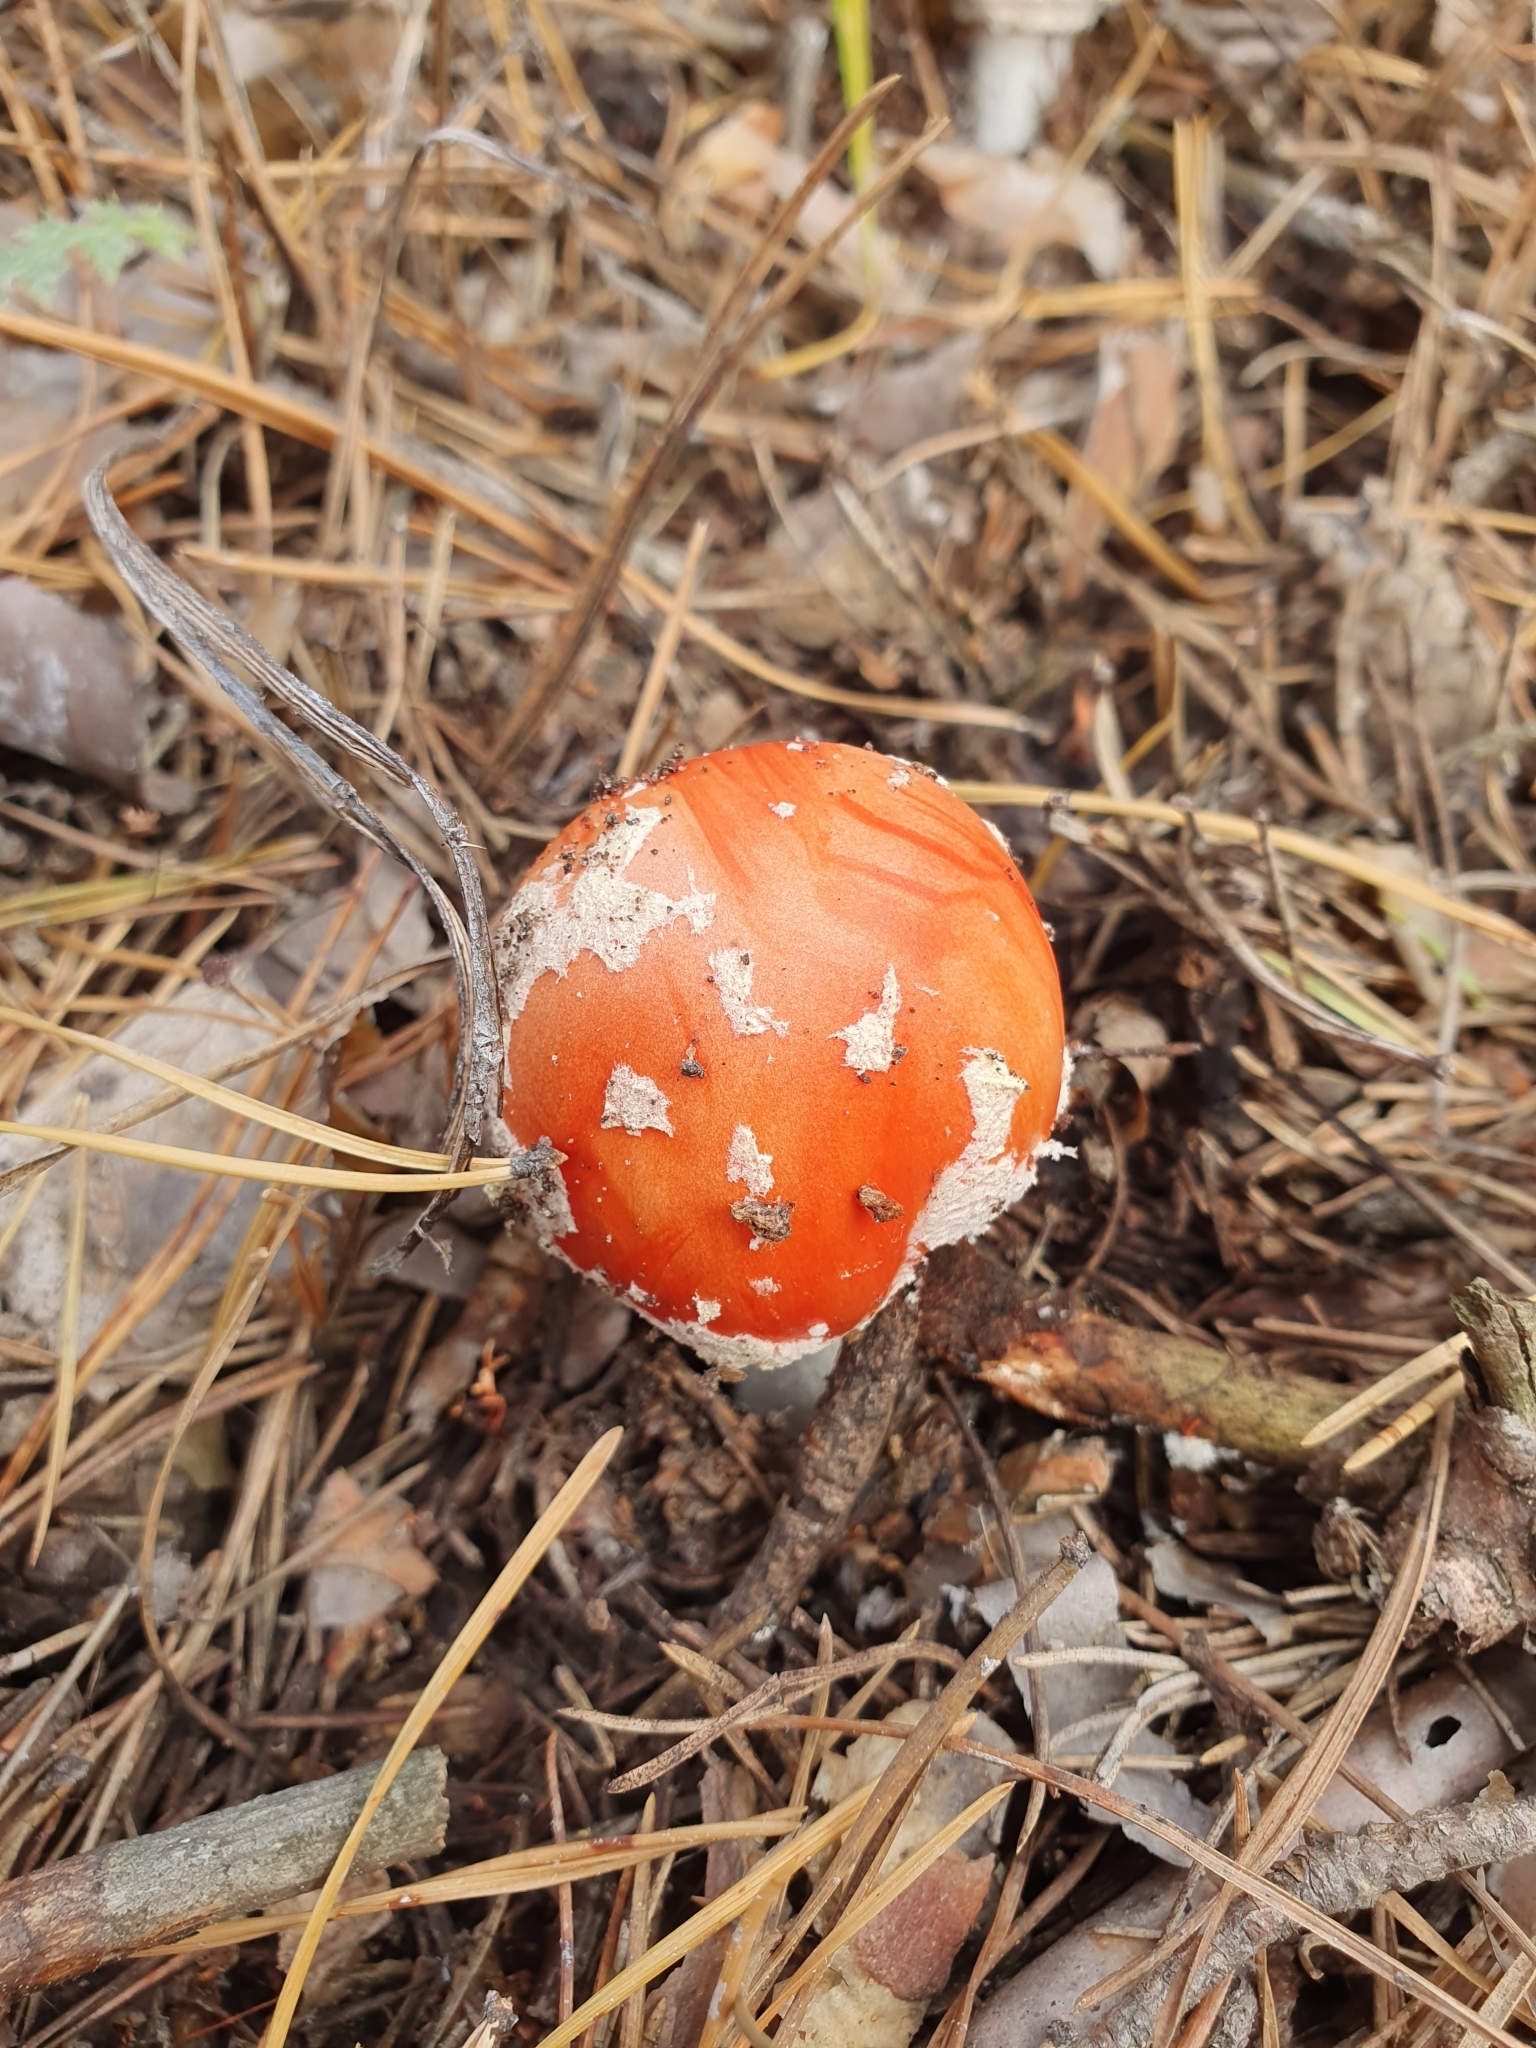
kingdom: Fungi
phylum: Basidiomycota
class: Agaricomycetes
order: Agaricales
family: Amanitaceae
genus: Amanita
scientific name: Amanita muscaria
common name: Fly agaric
